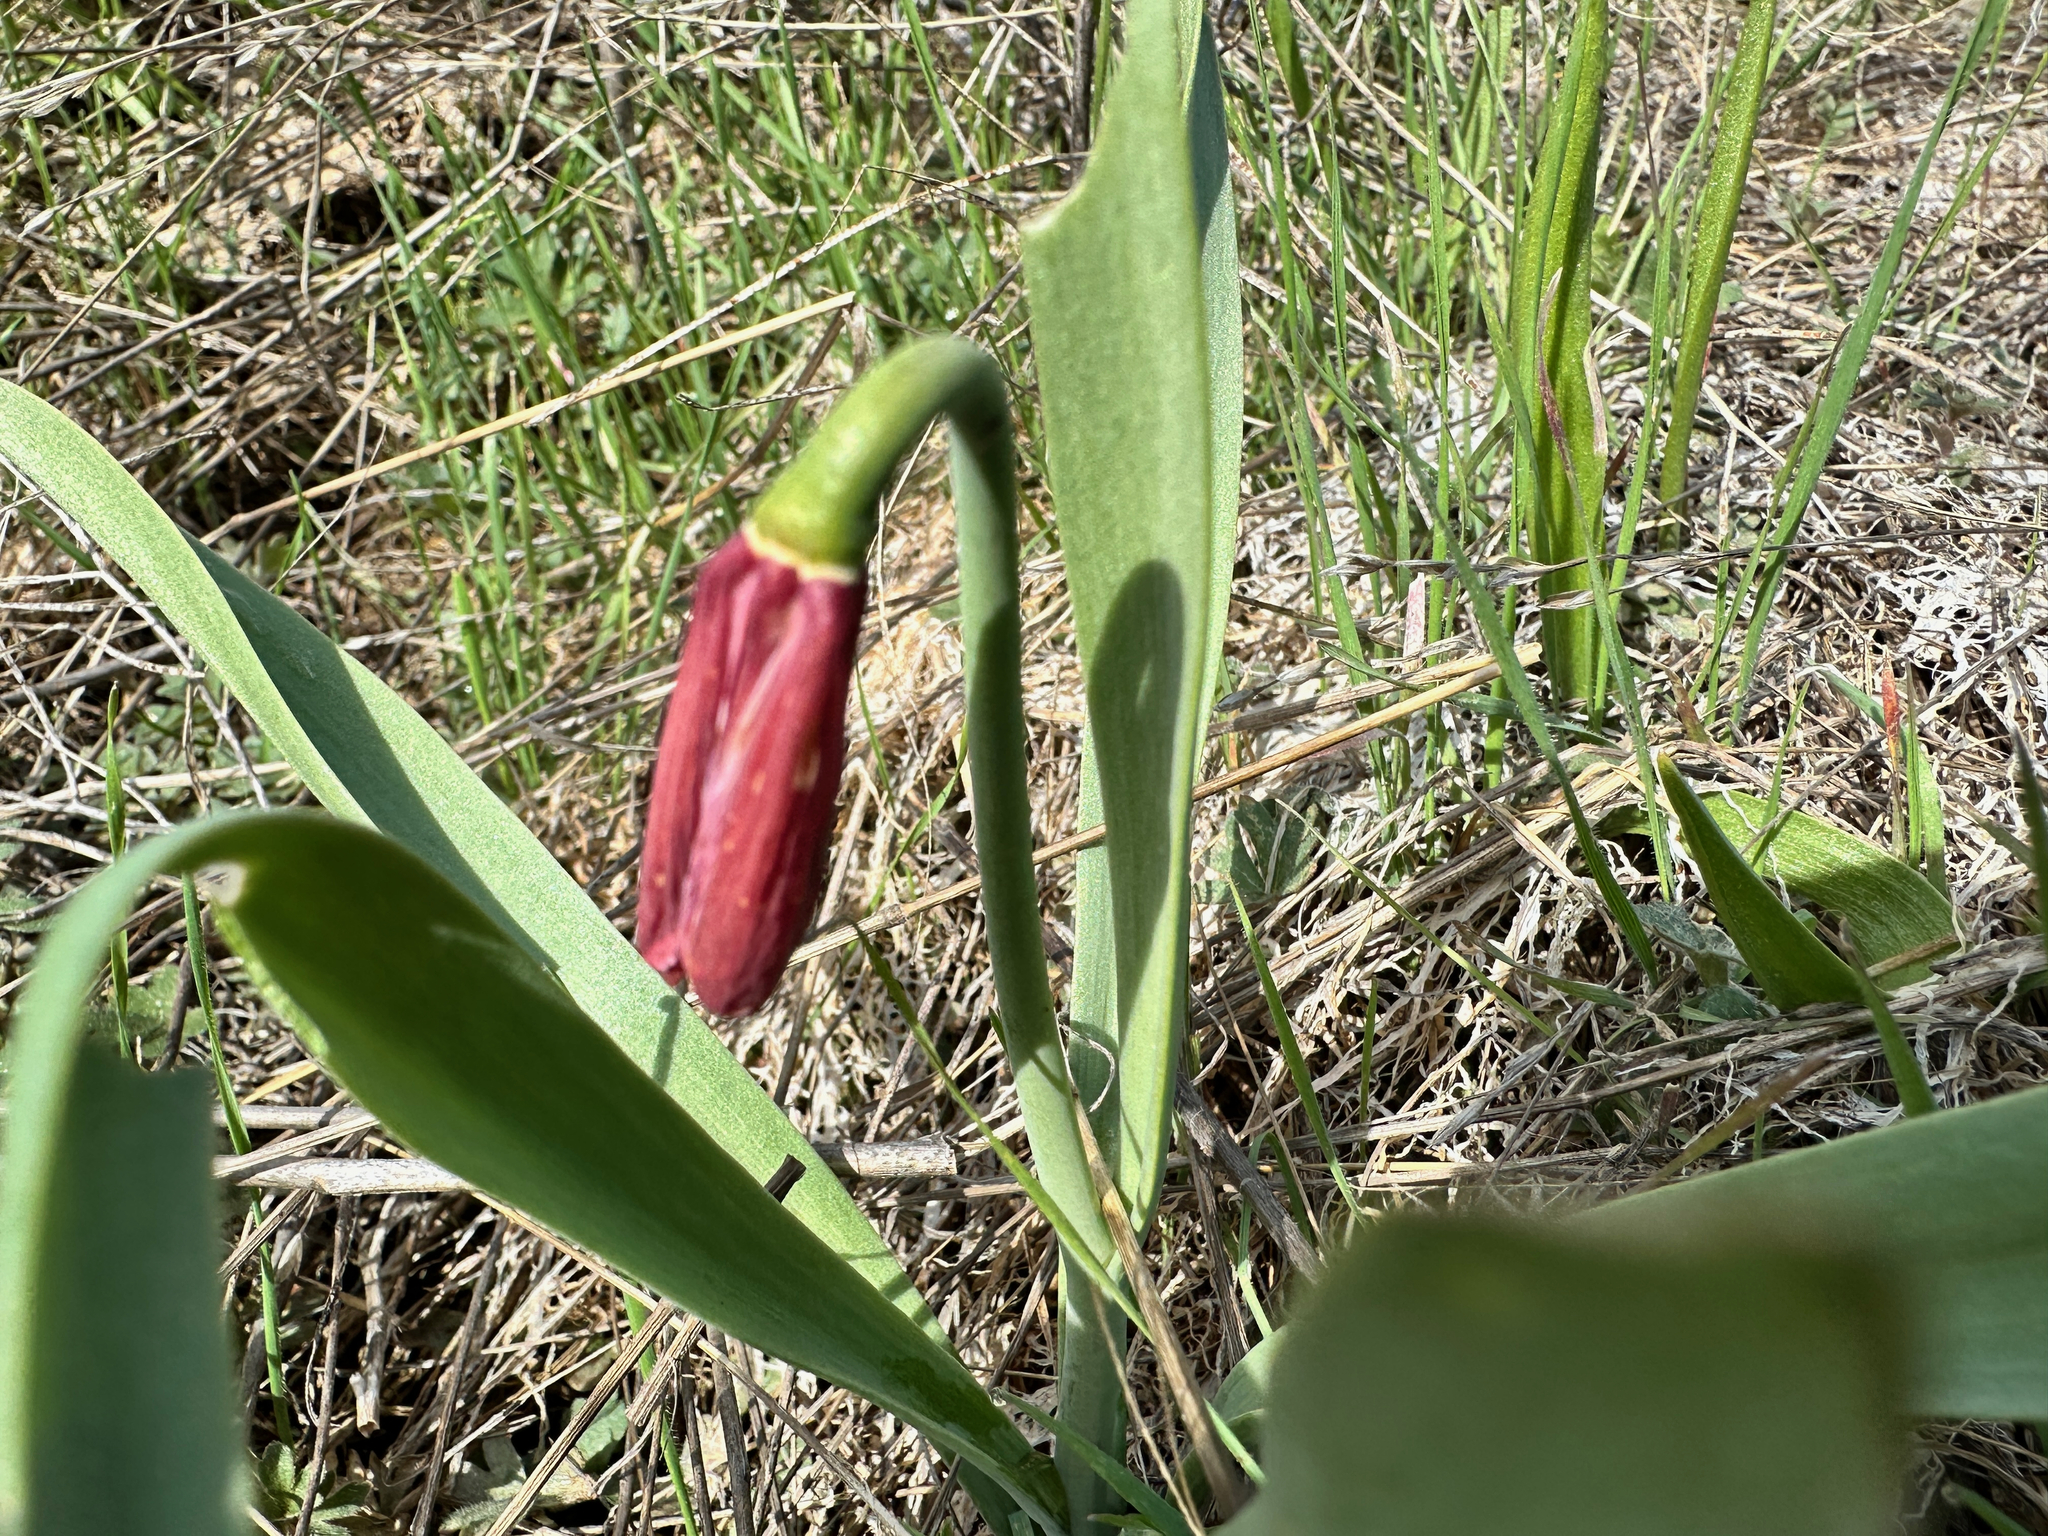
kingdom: Plantae
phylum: Tracheophyta
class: Liliopsida
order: Liliales
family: Liliaceae
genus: Fritillaria
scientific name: Fritillaria pudica
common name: Yellow fritillary
